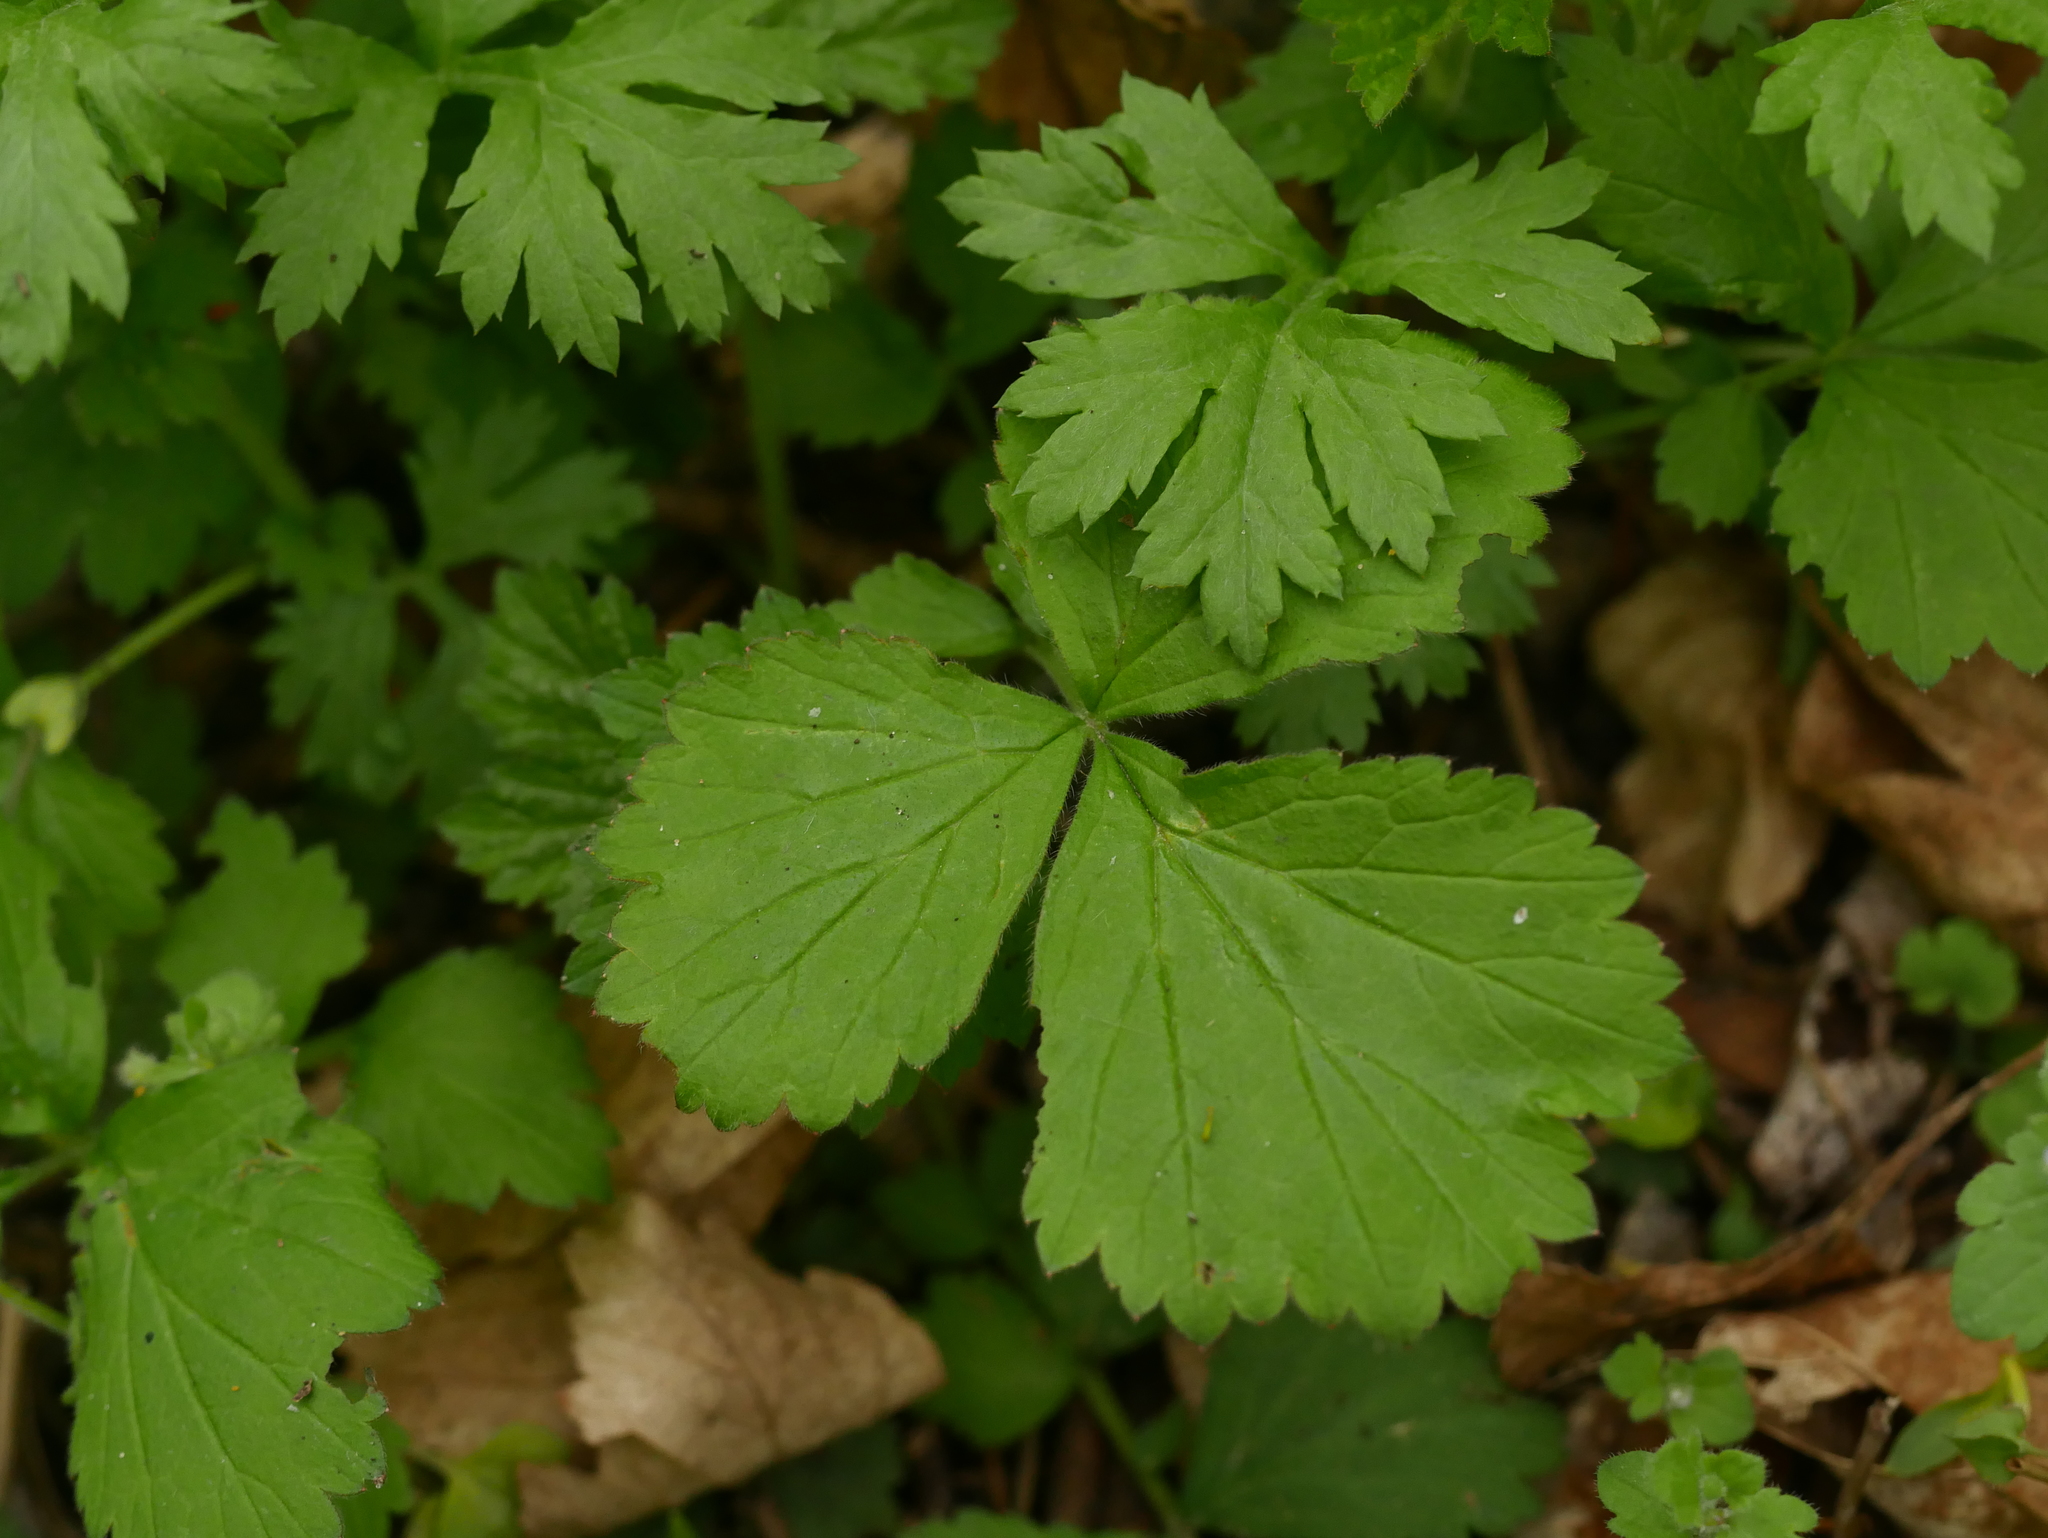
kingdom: Plantae
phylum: Tracheophyta
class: Magnoliopsida
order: Rosales
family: Rosaceae
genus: Geum
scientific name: Geum urbanum
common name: Wood avens
